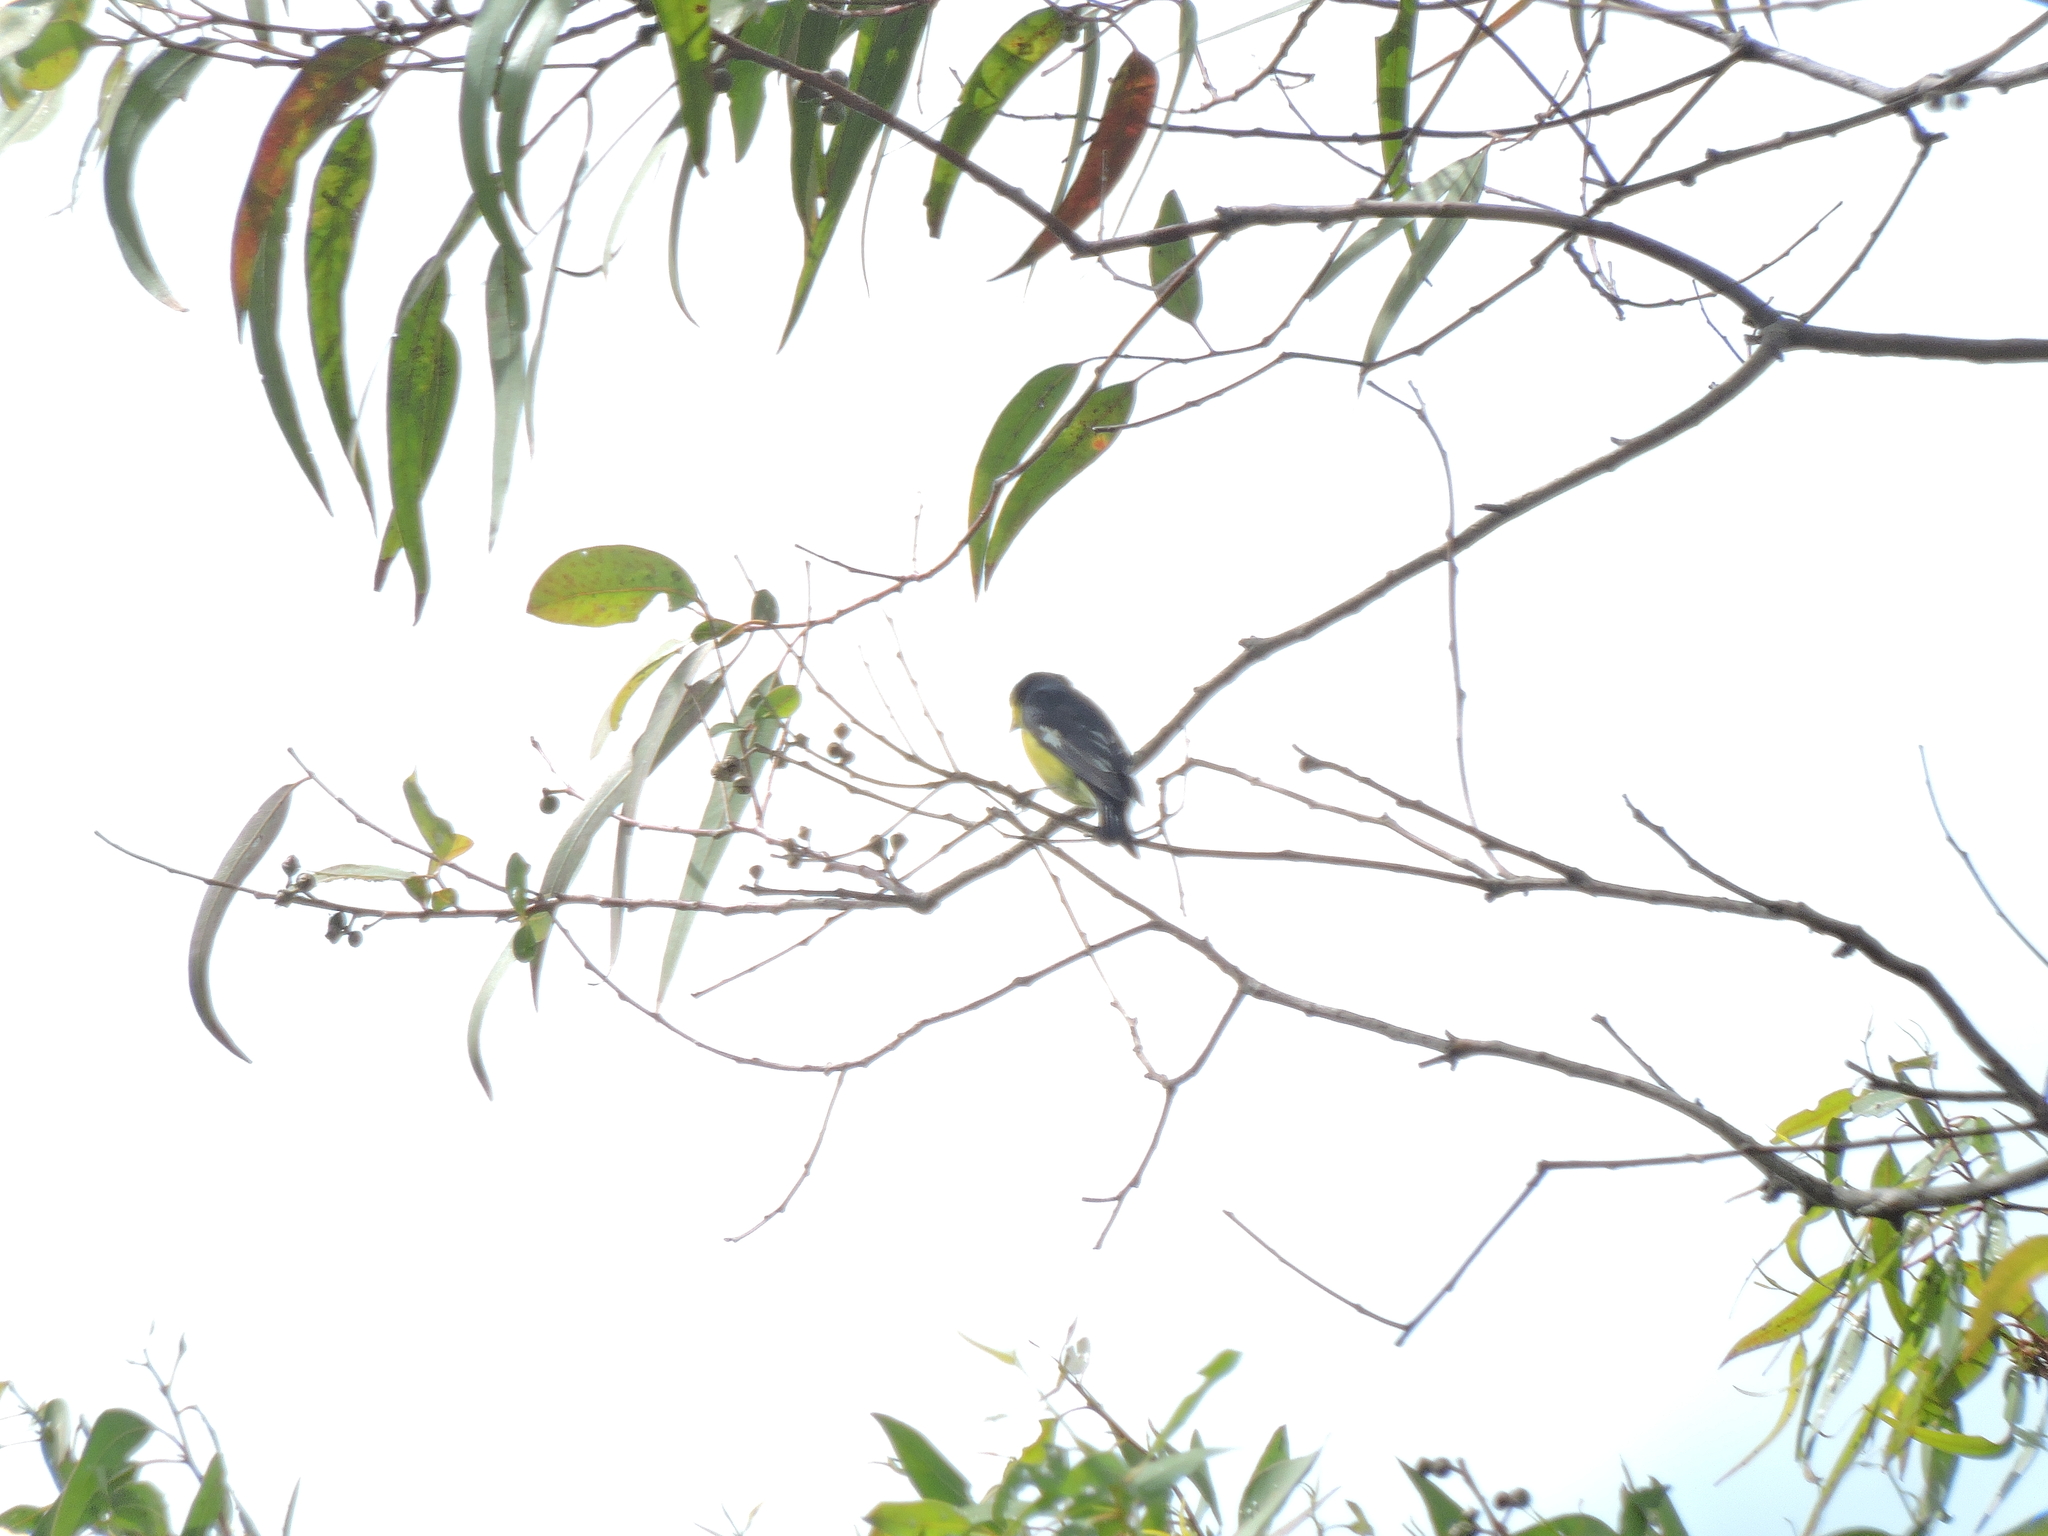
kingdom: Animalia
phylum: Chordata
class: Aves
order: Passeriformes
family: Fringillidae
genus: Spinus
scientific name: Spinus psaltria
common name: Lesser goldfinch
